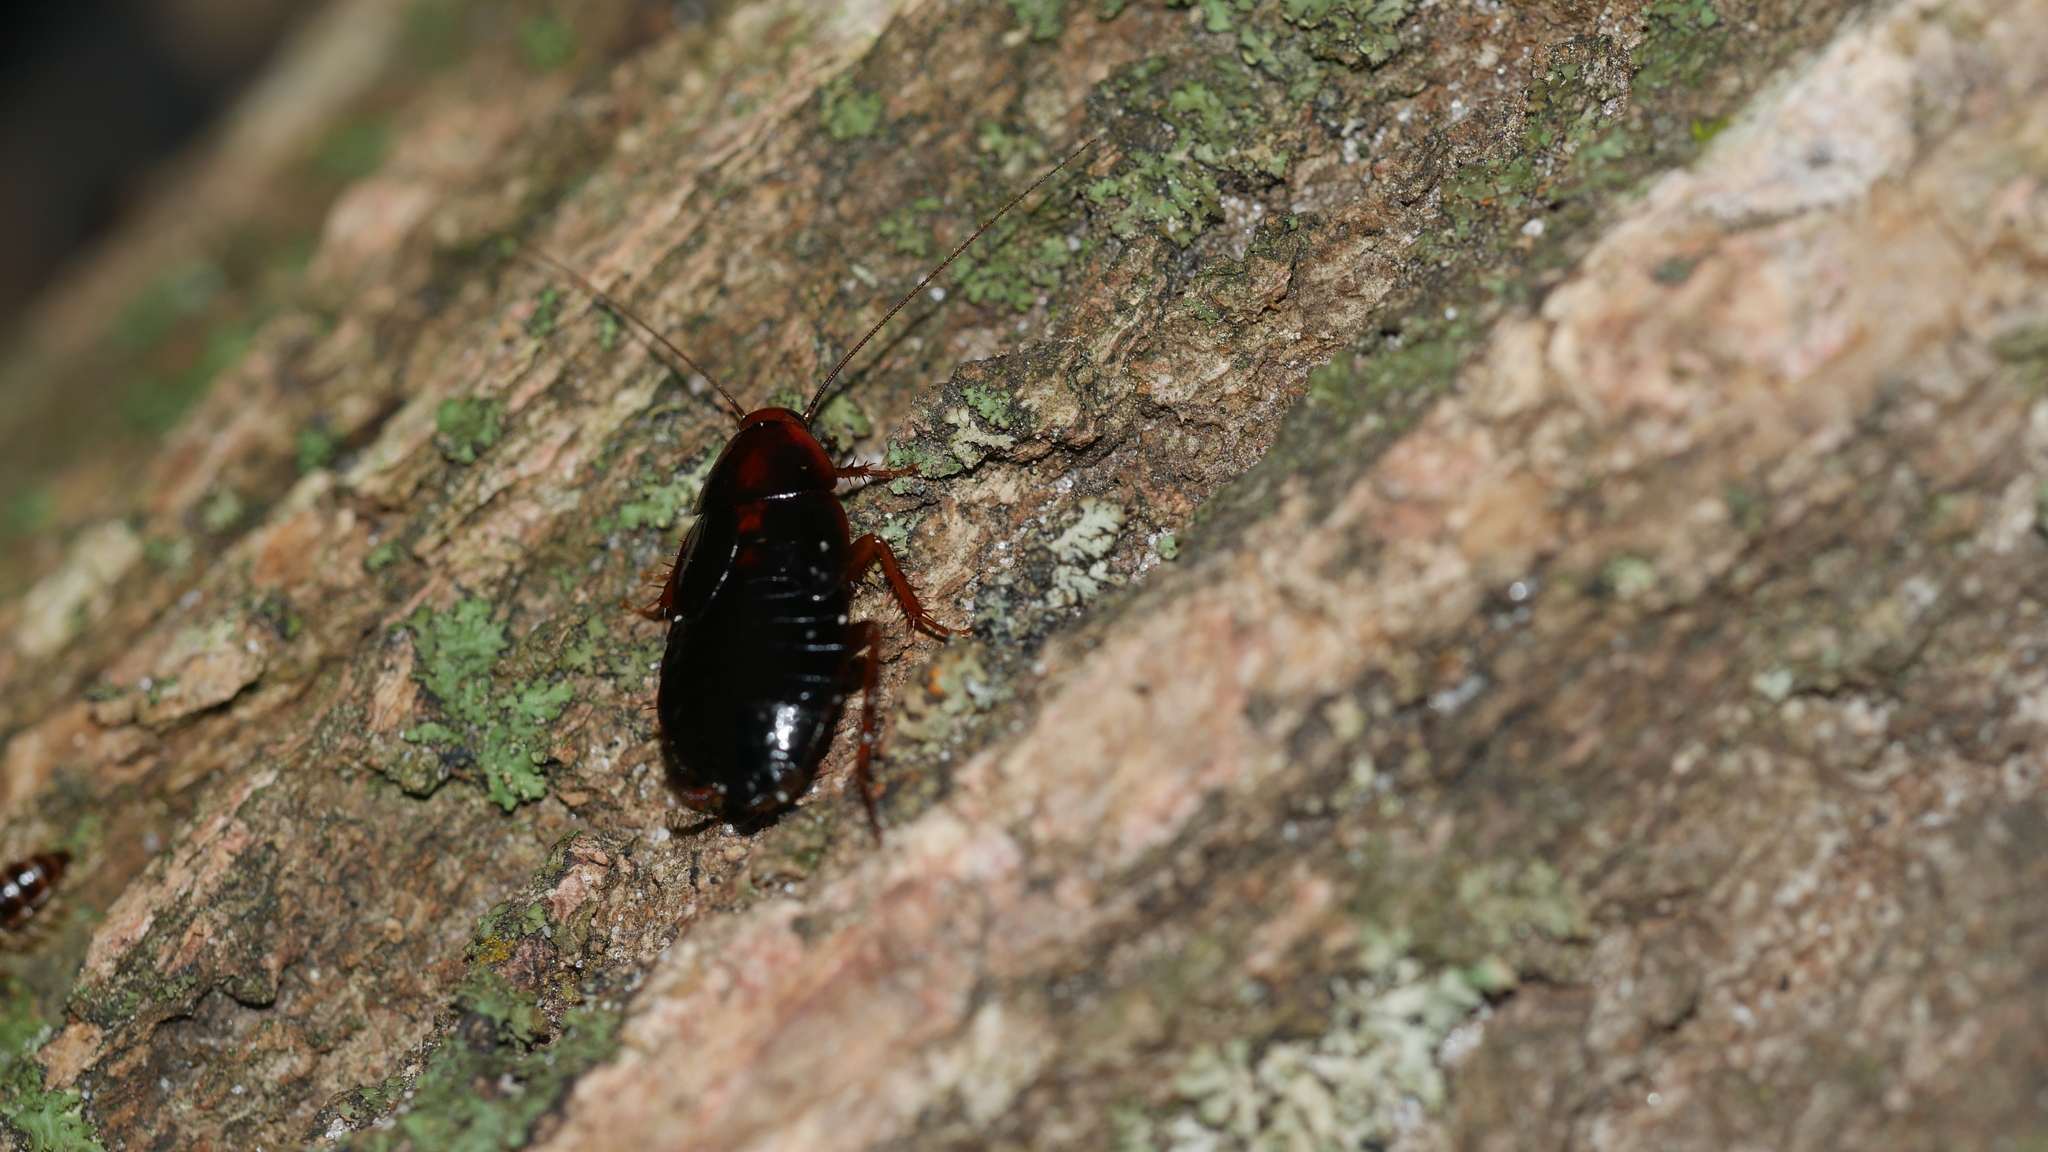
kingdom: Animalia
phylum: Arthropoda
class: Insecta
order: Blattodea
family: Ectobiidae
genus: Parcoblatta
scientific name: Parcoblatta uhleriana
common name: Uhler's wood cockroach
